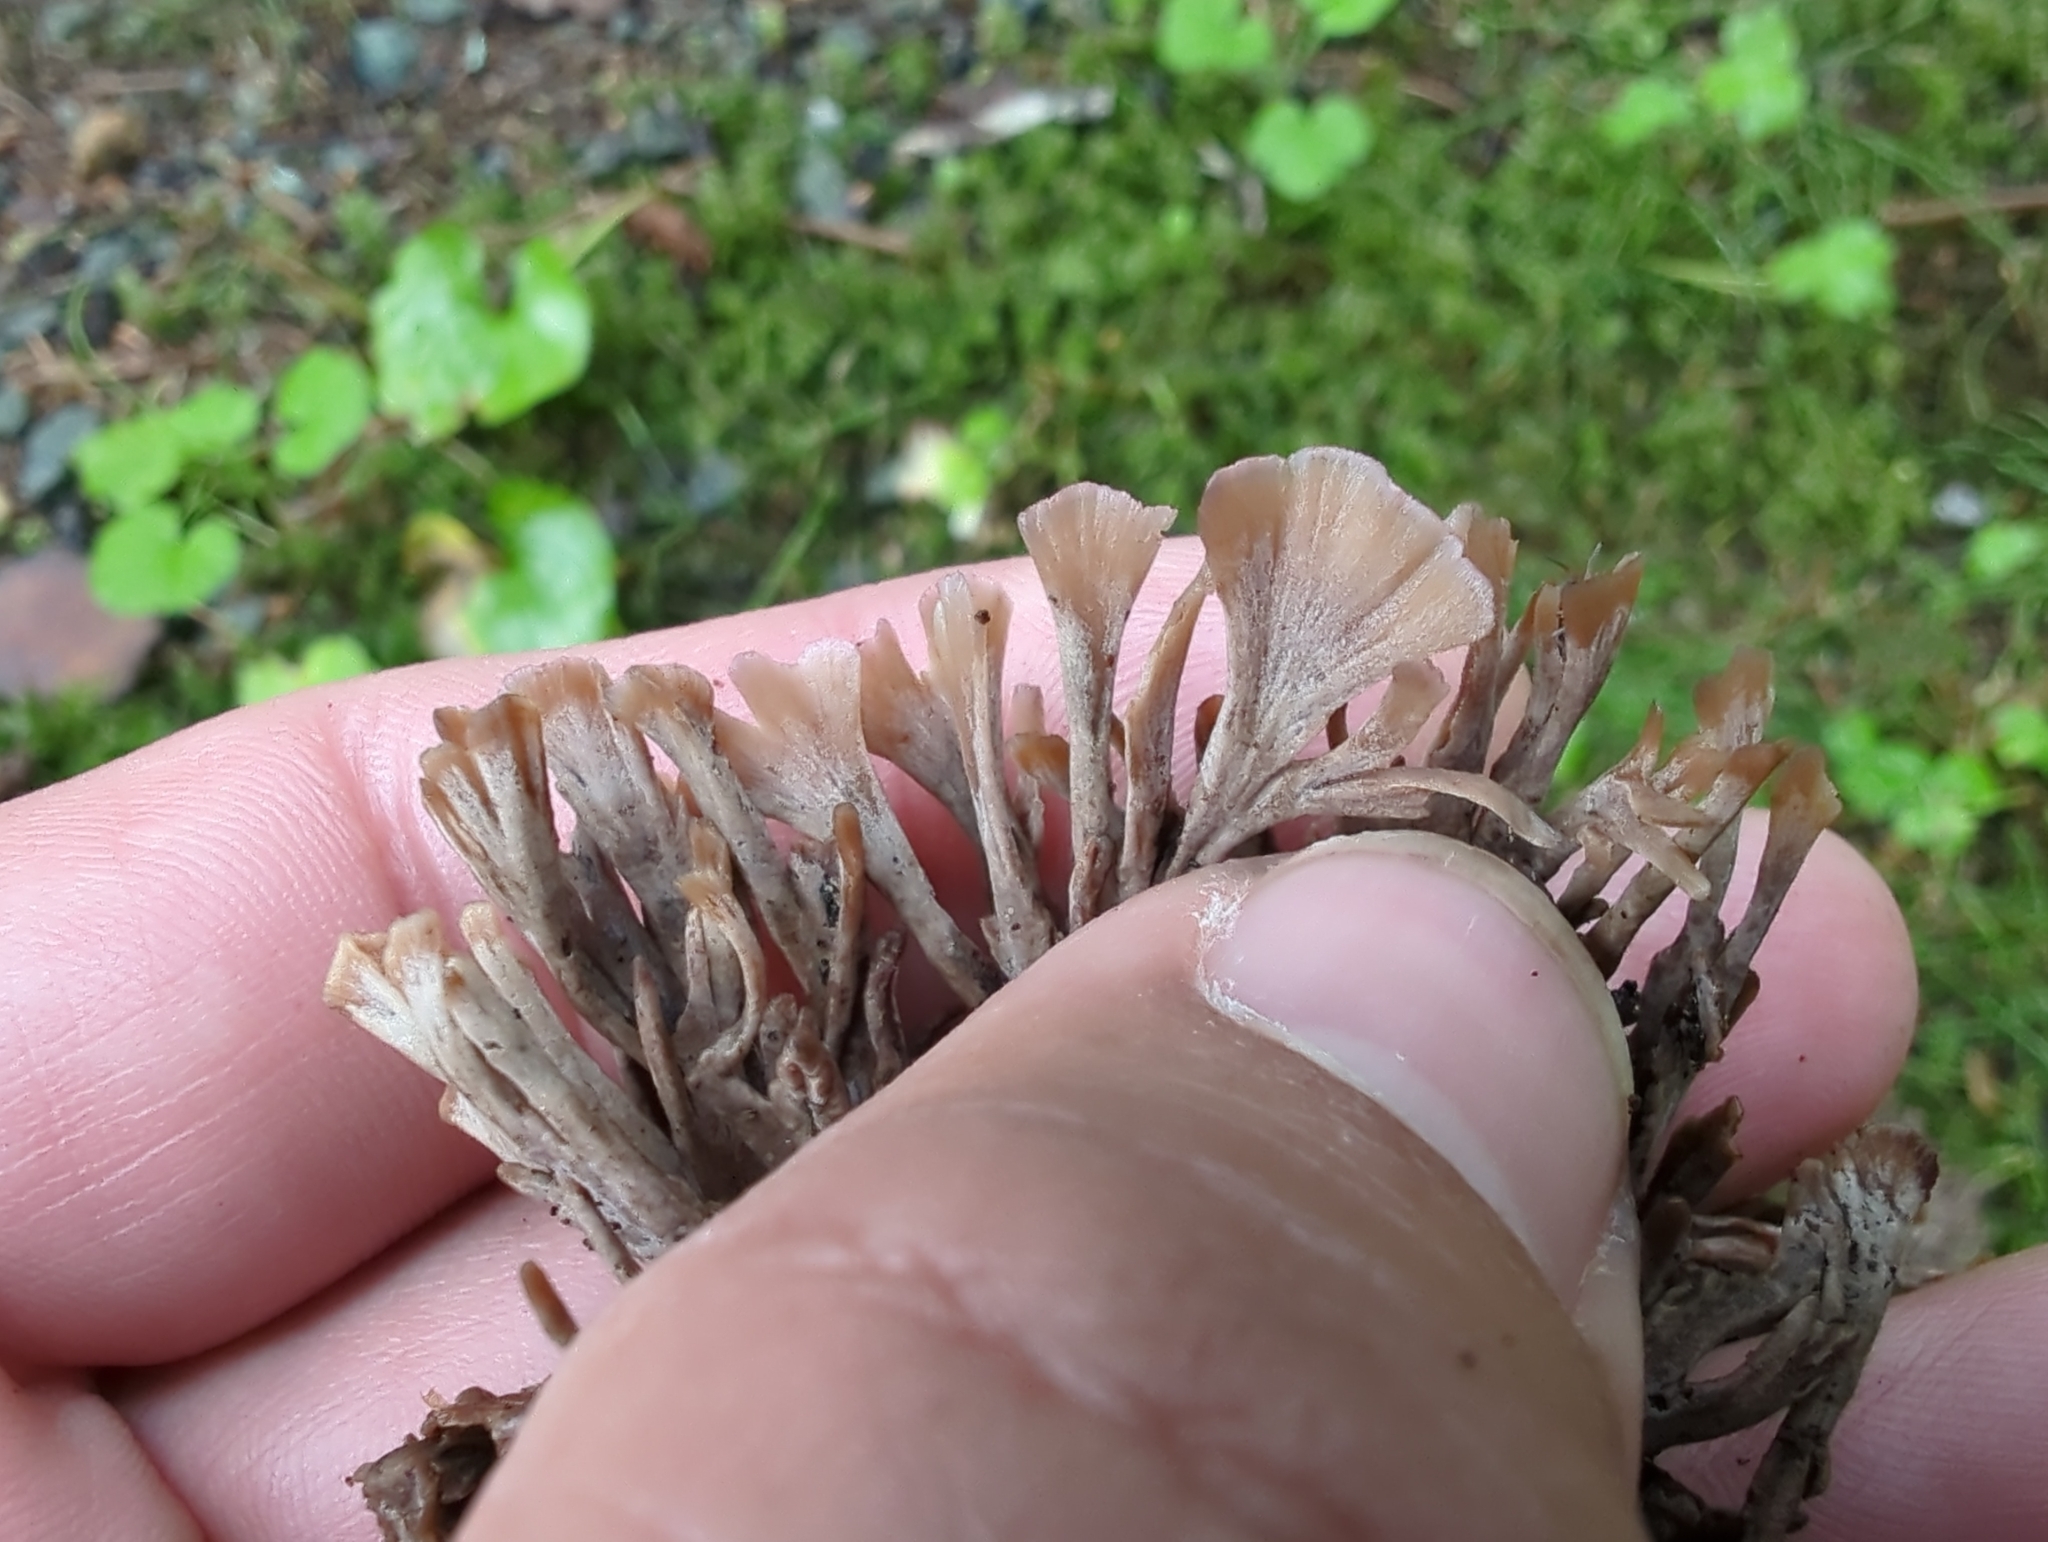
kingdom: Fungi
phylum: Basidiomycota
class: Agaricomycetes
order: Thelephorales
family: Thelephoraceae
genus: Thelephora
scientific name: Thelephora palmata
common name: Stinking earthfan
